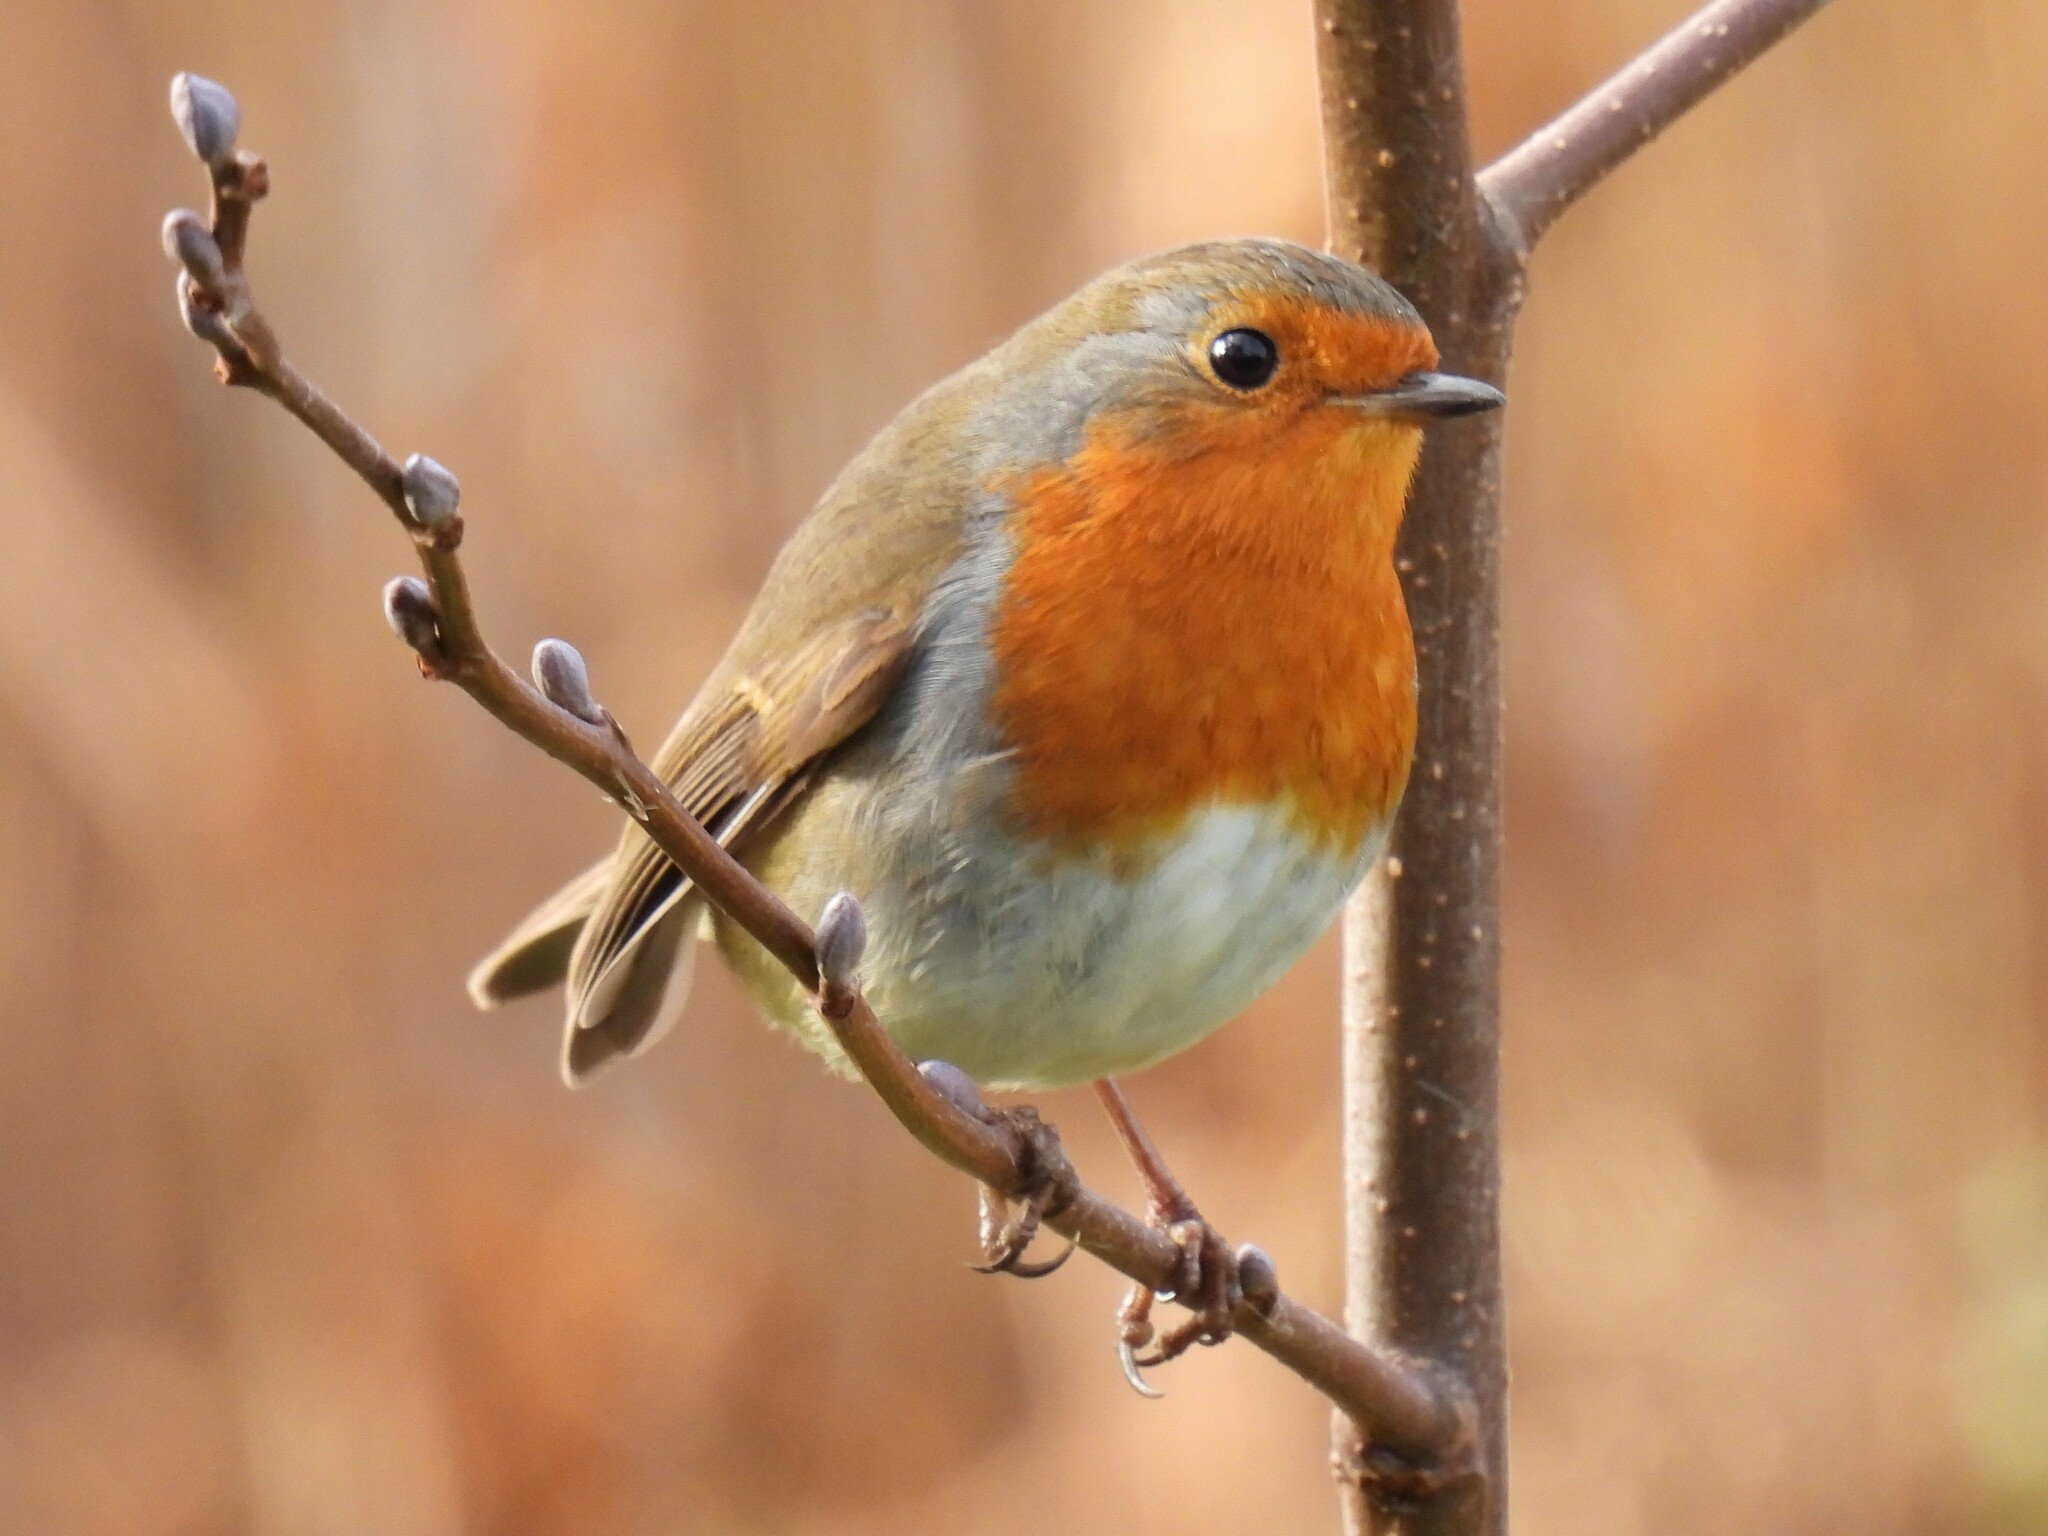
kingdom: Animalia
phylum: Chordata
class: Aves
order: Passeriformes
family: Muscicapidae
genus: Erithacus
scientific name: Erithacus rubecula
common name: European robin
